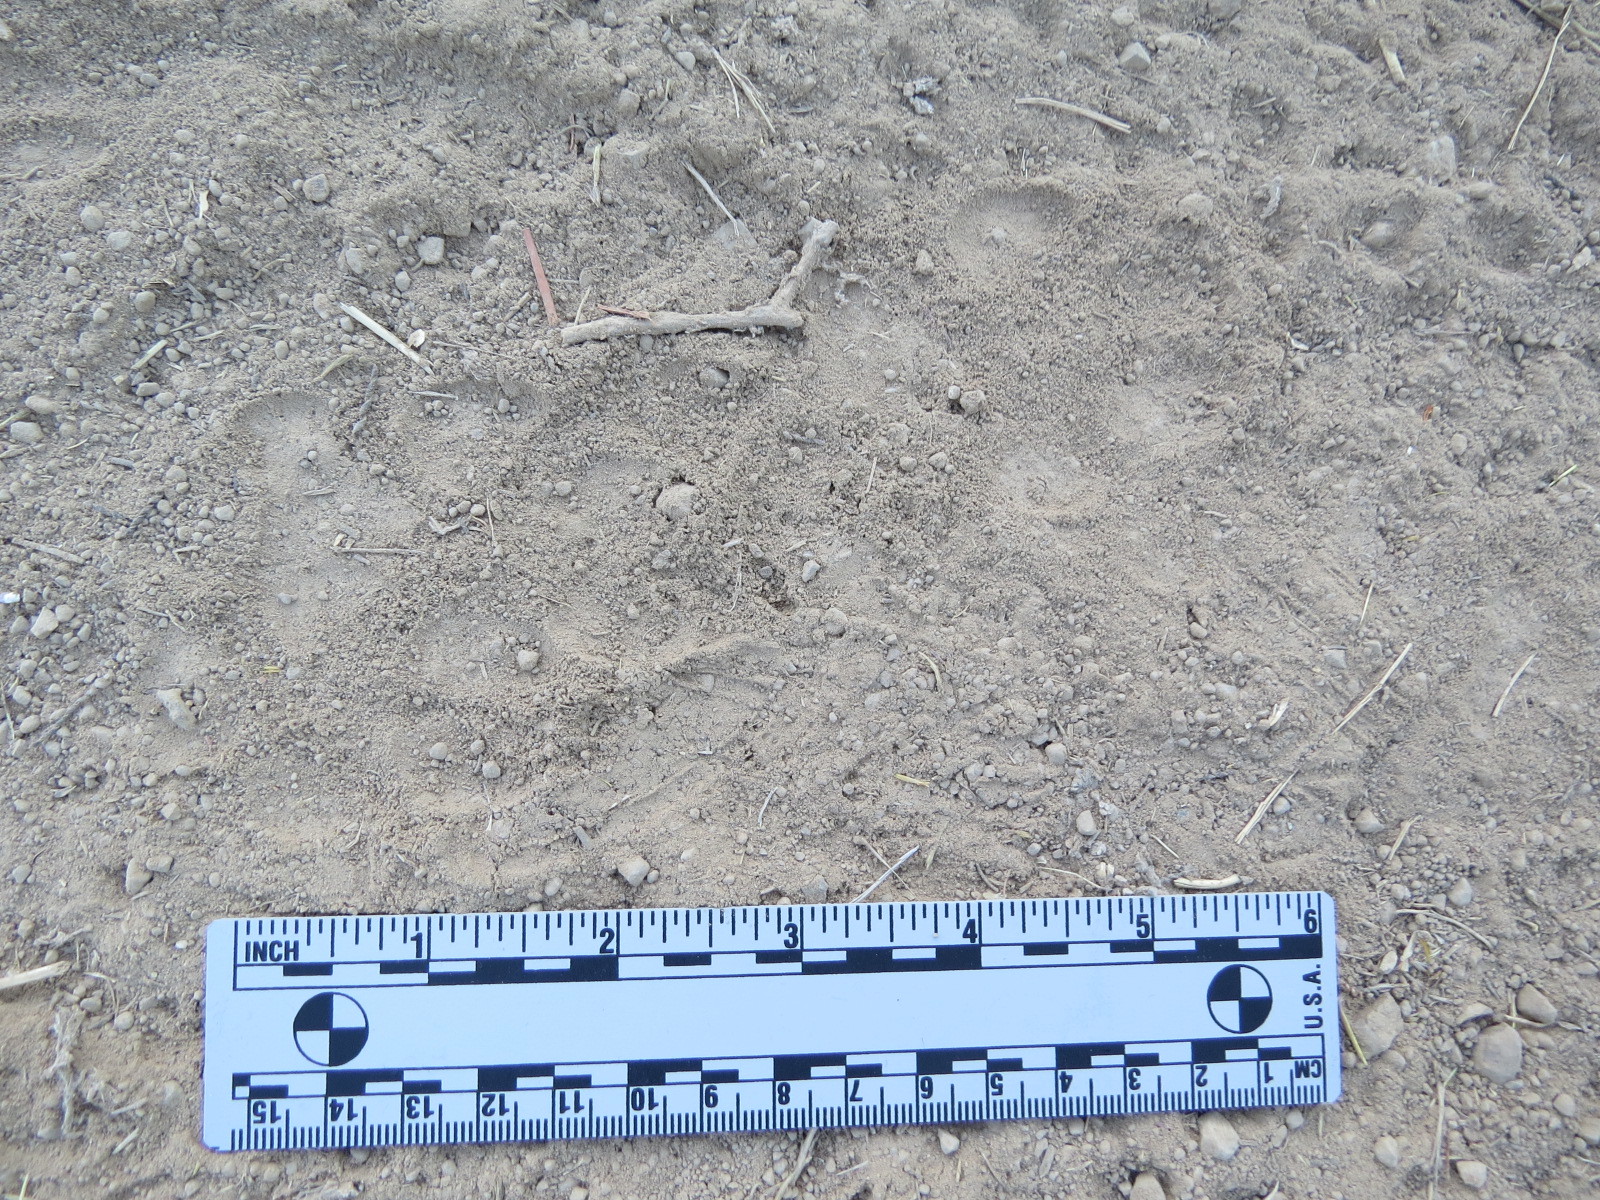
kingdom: Animalia
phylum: Chordata
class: Mammalia
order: Carnivora
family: Canidae
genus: Canis
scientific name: Canis latrans
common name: Coyote
